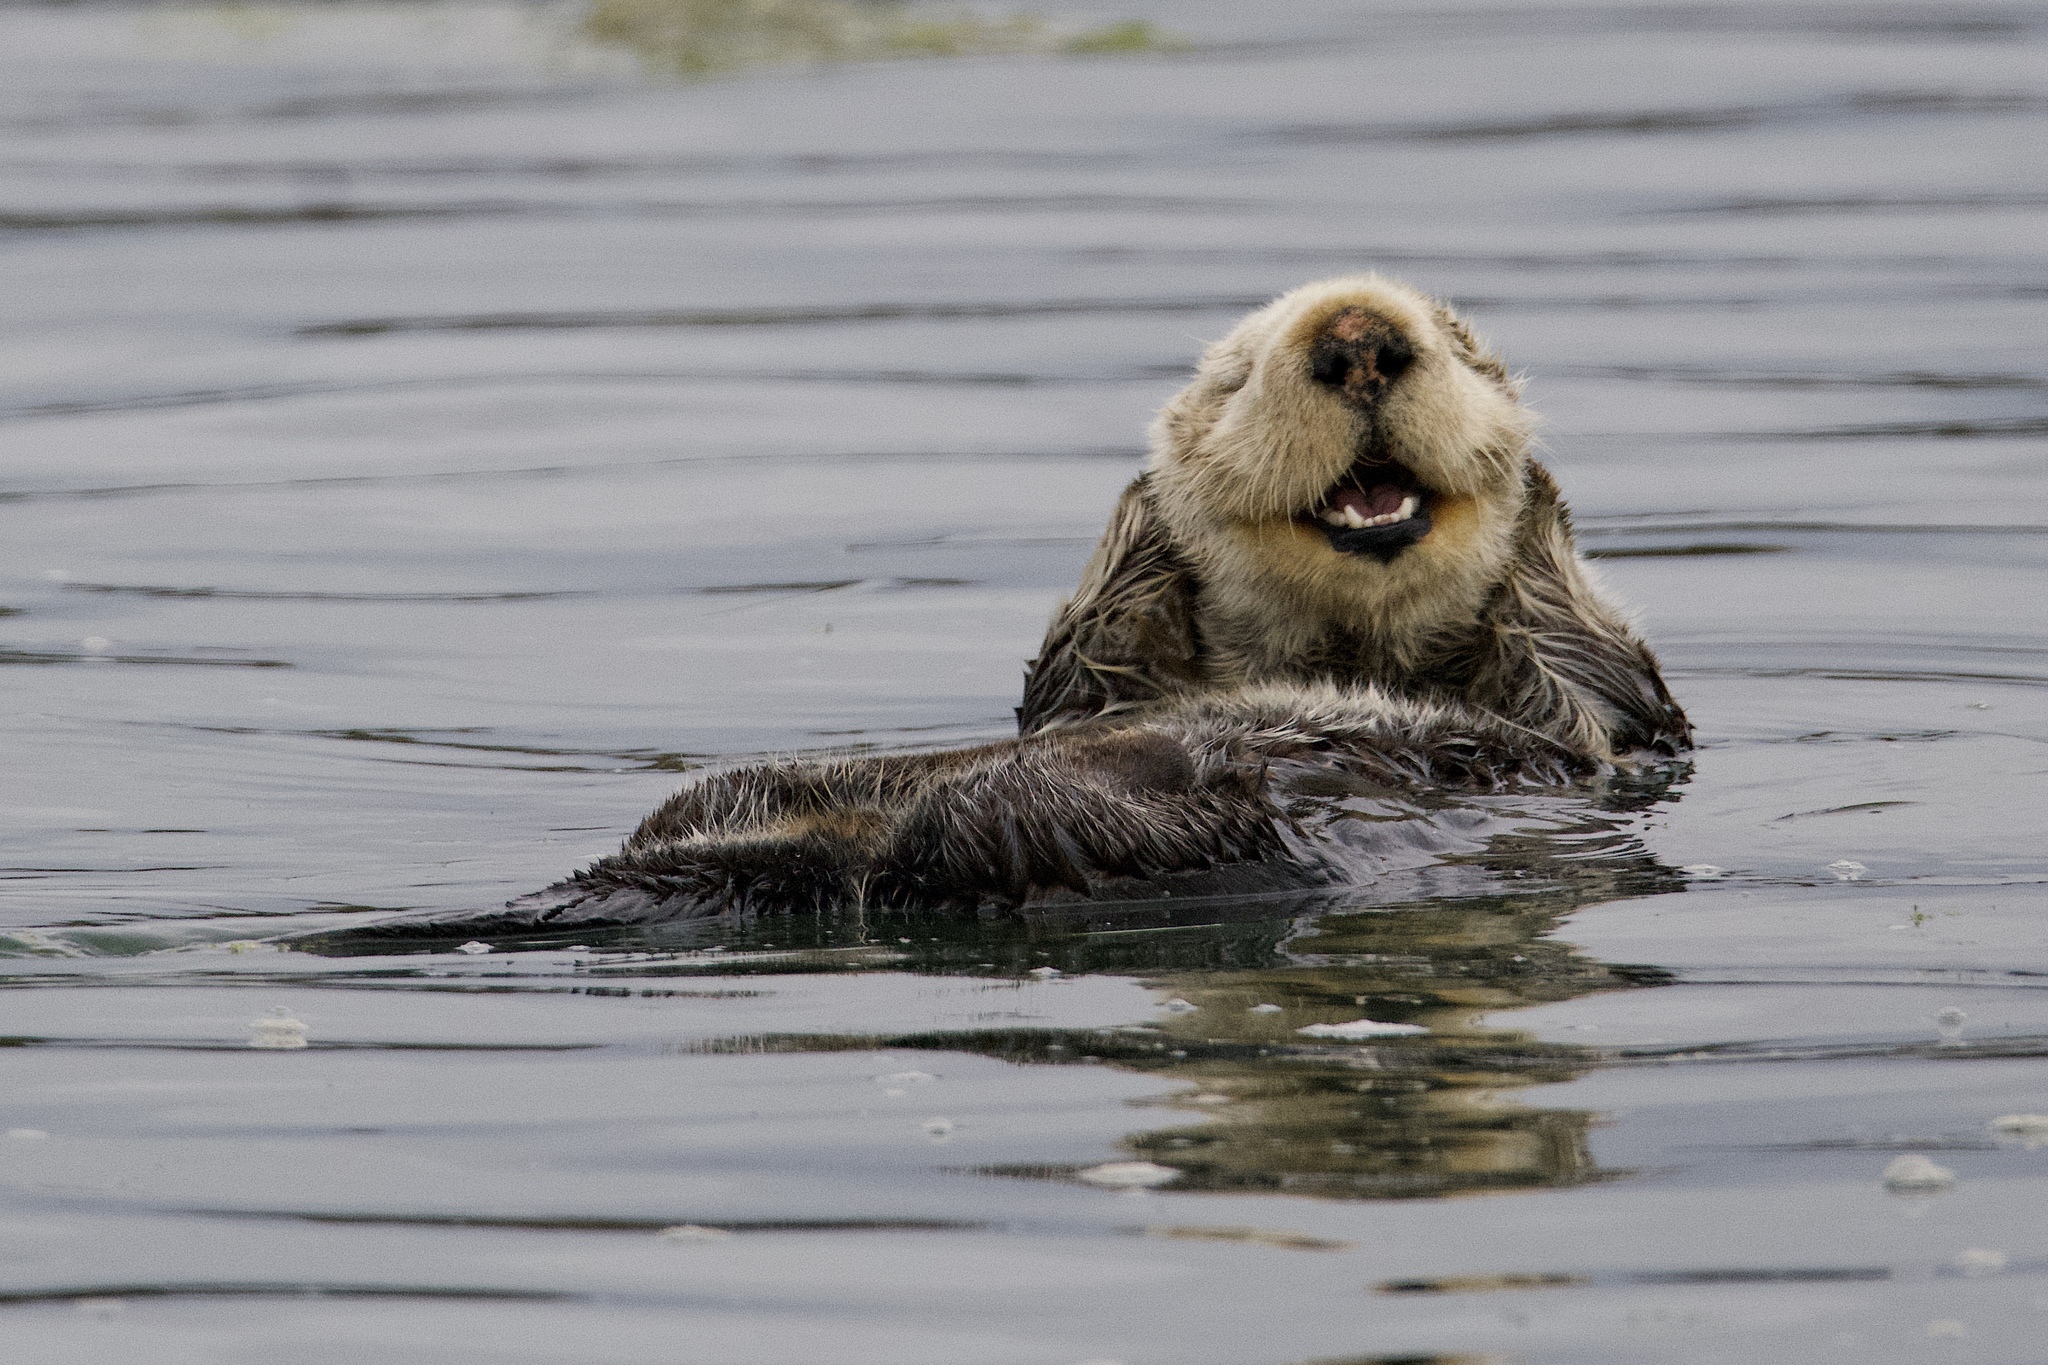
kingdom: Animalia
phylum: Chordata
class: Mammalia
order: Carnivora
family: Mustelidae
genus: Enhydra
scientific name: Enhydra lutris
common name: Sea otter
